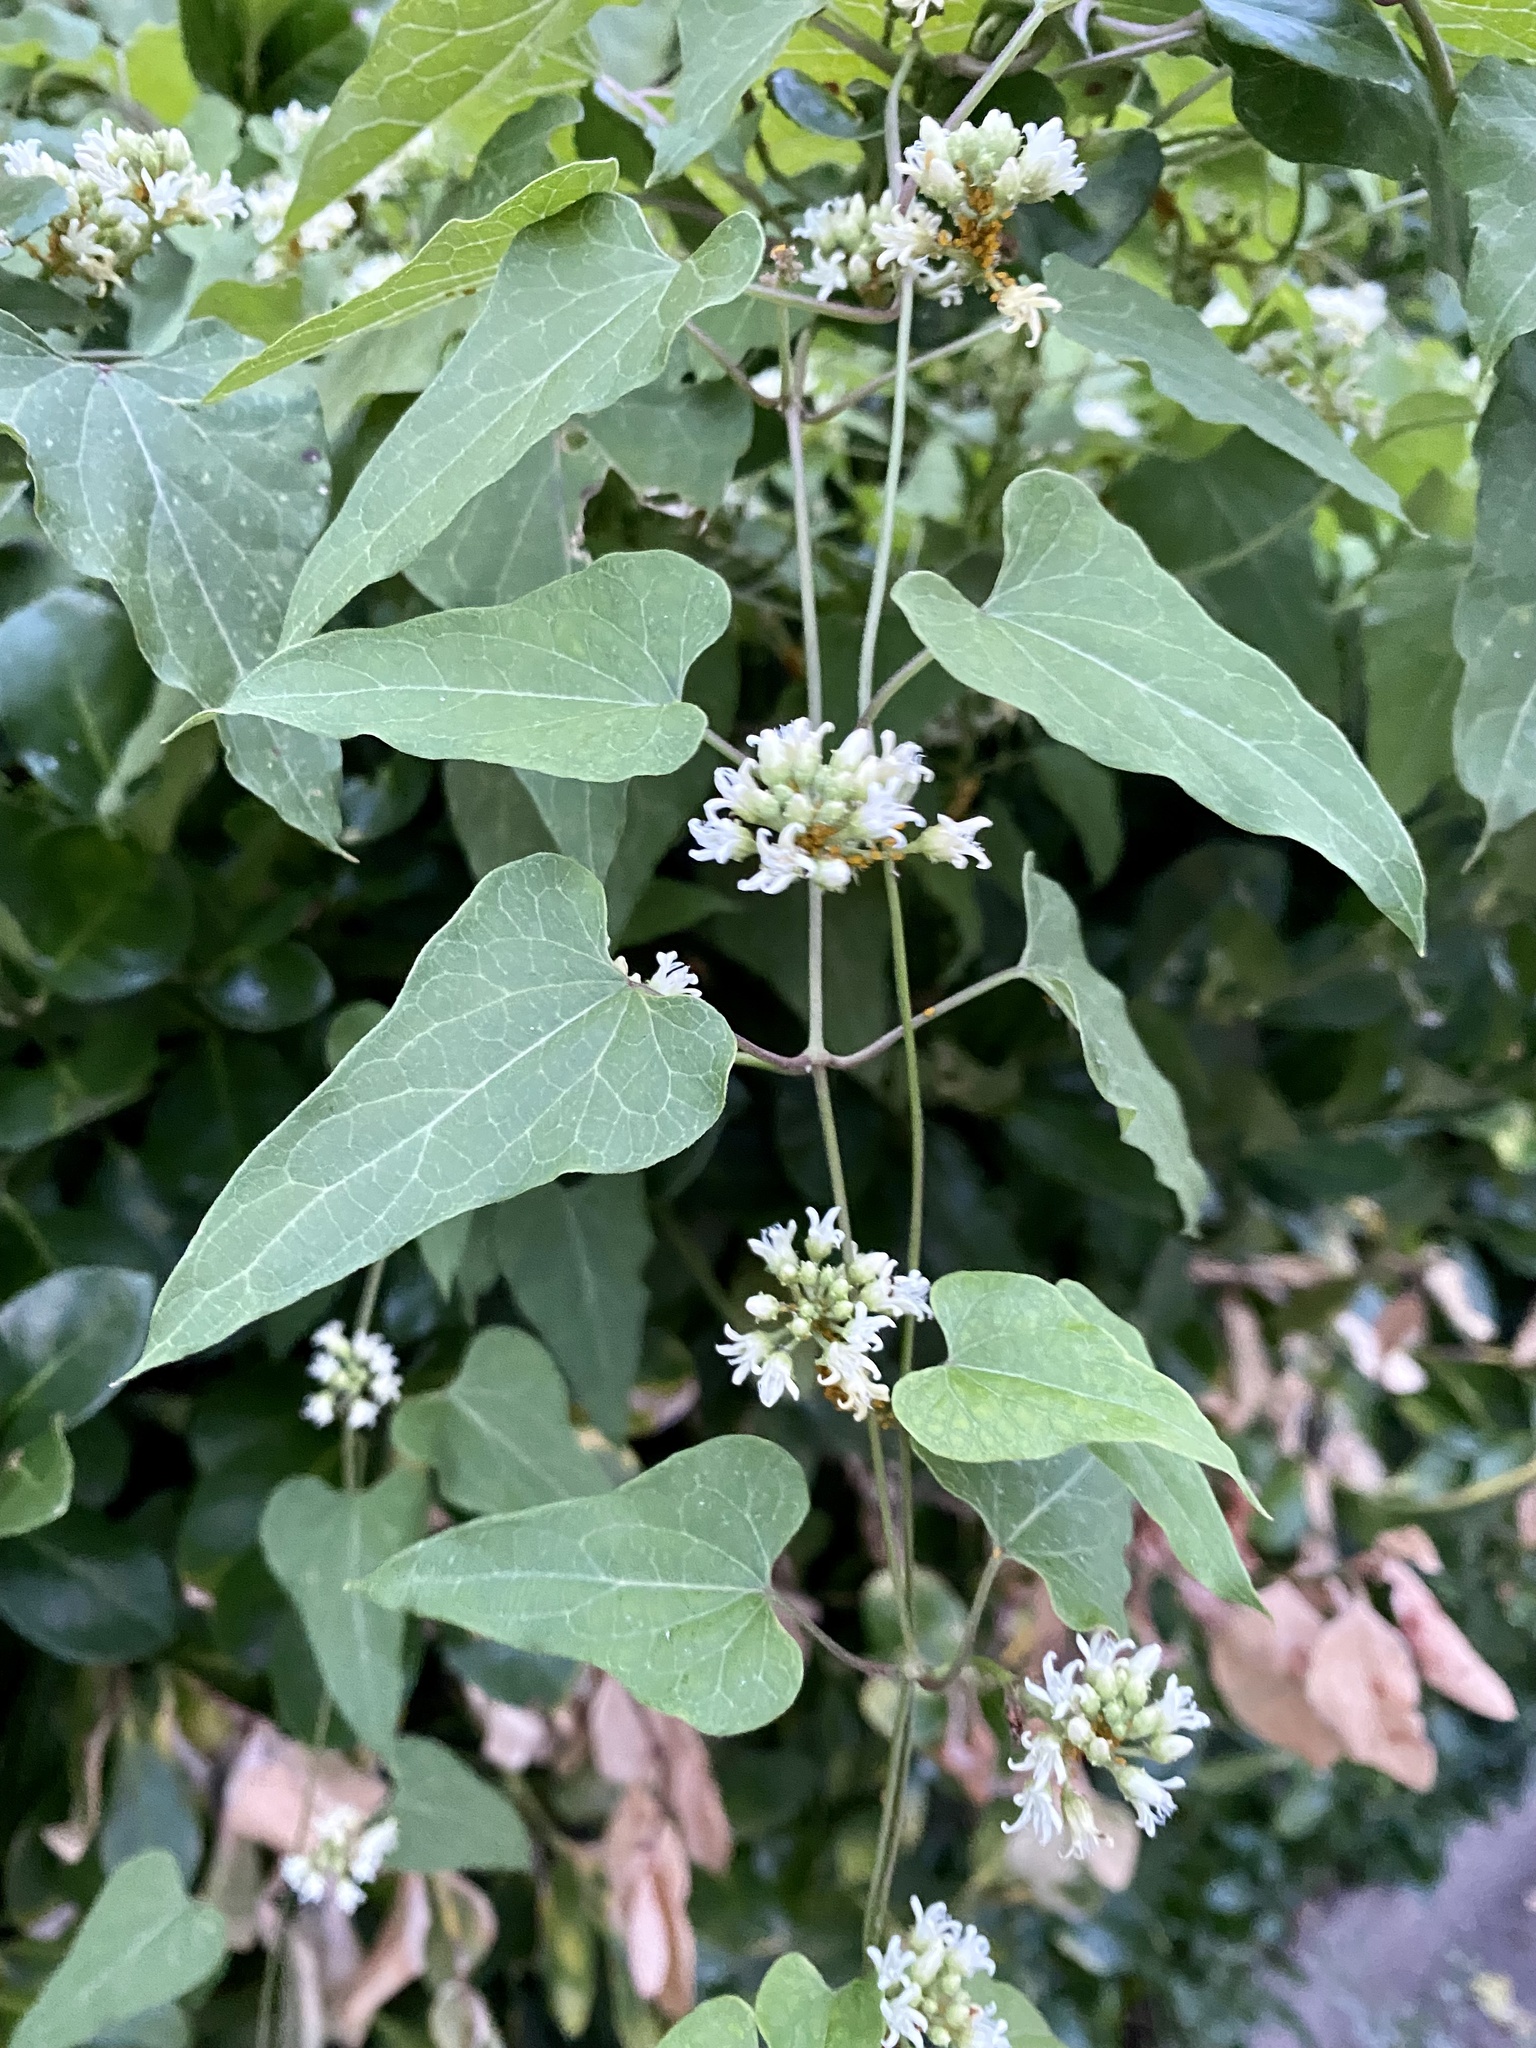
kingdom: Plantae
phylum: Tracheophyta
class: Magnoliopsida
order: Gentianales
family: Apocynaceae
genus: Cynanchum
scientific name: Cynanchum laeve
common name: Sandvine
